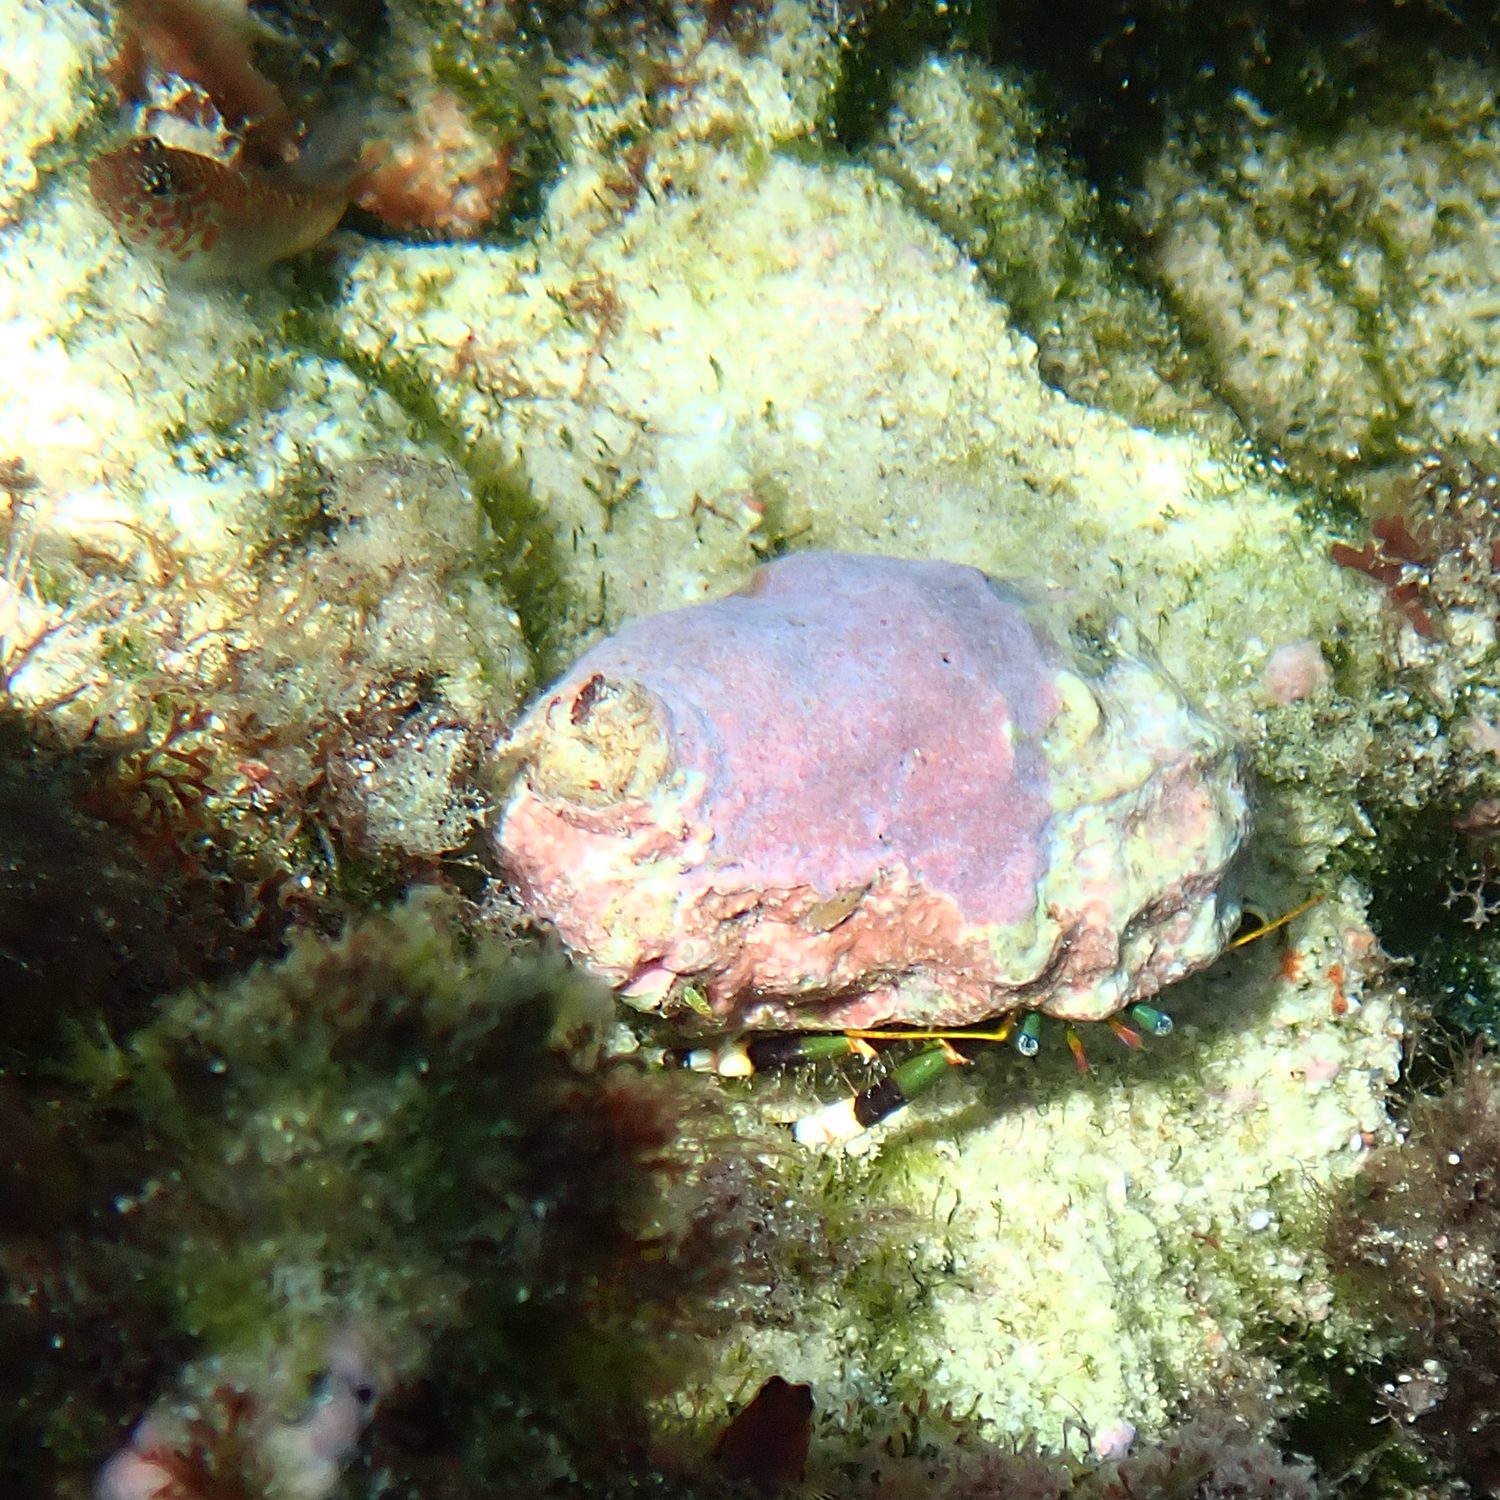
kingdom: Animalia
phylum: Arthropoda
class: Malacostraca
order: Decapoda
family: Diogenidae
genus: Calcinus
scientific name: Calcinus imperialis
